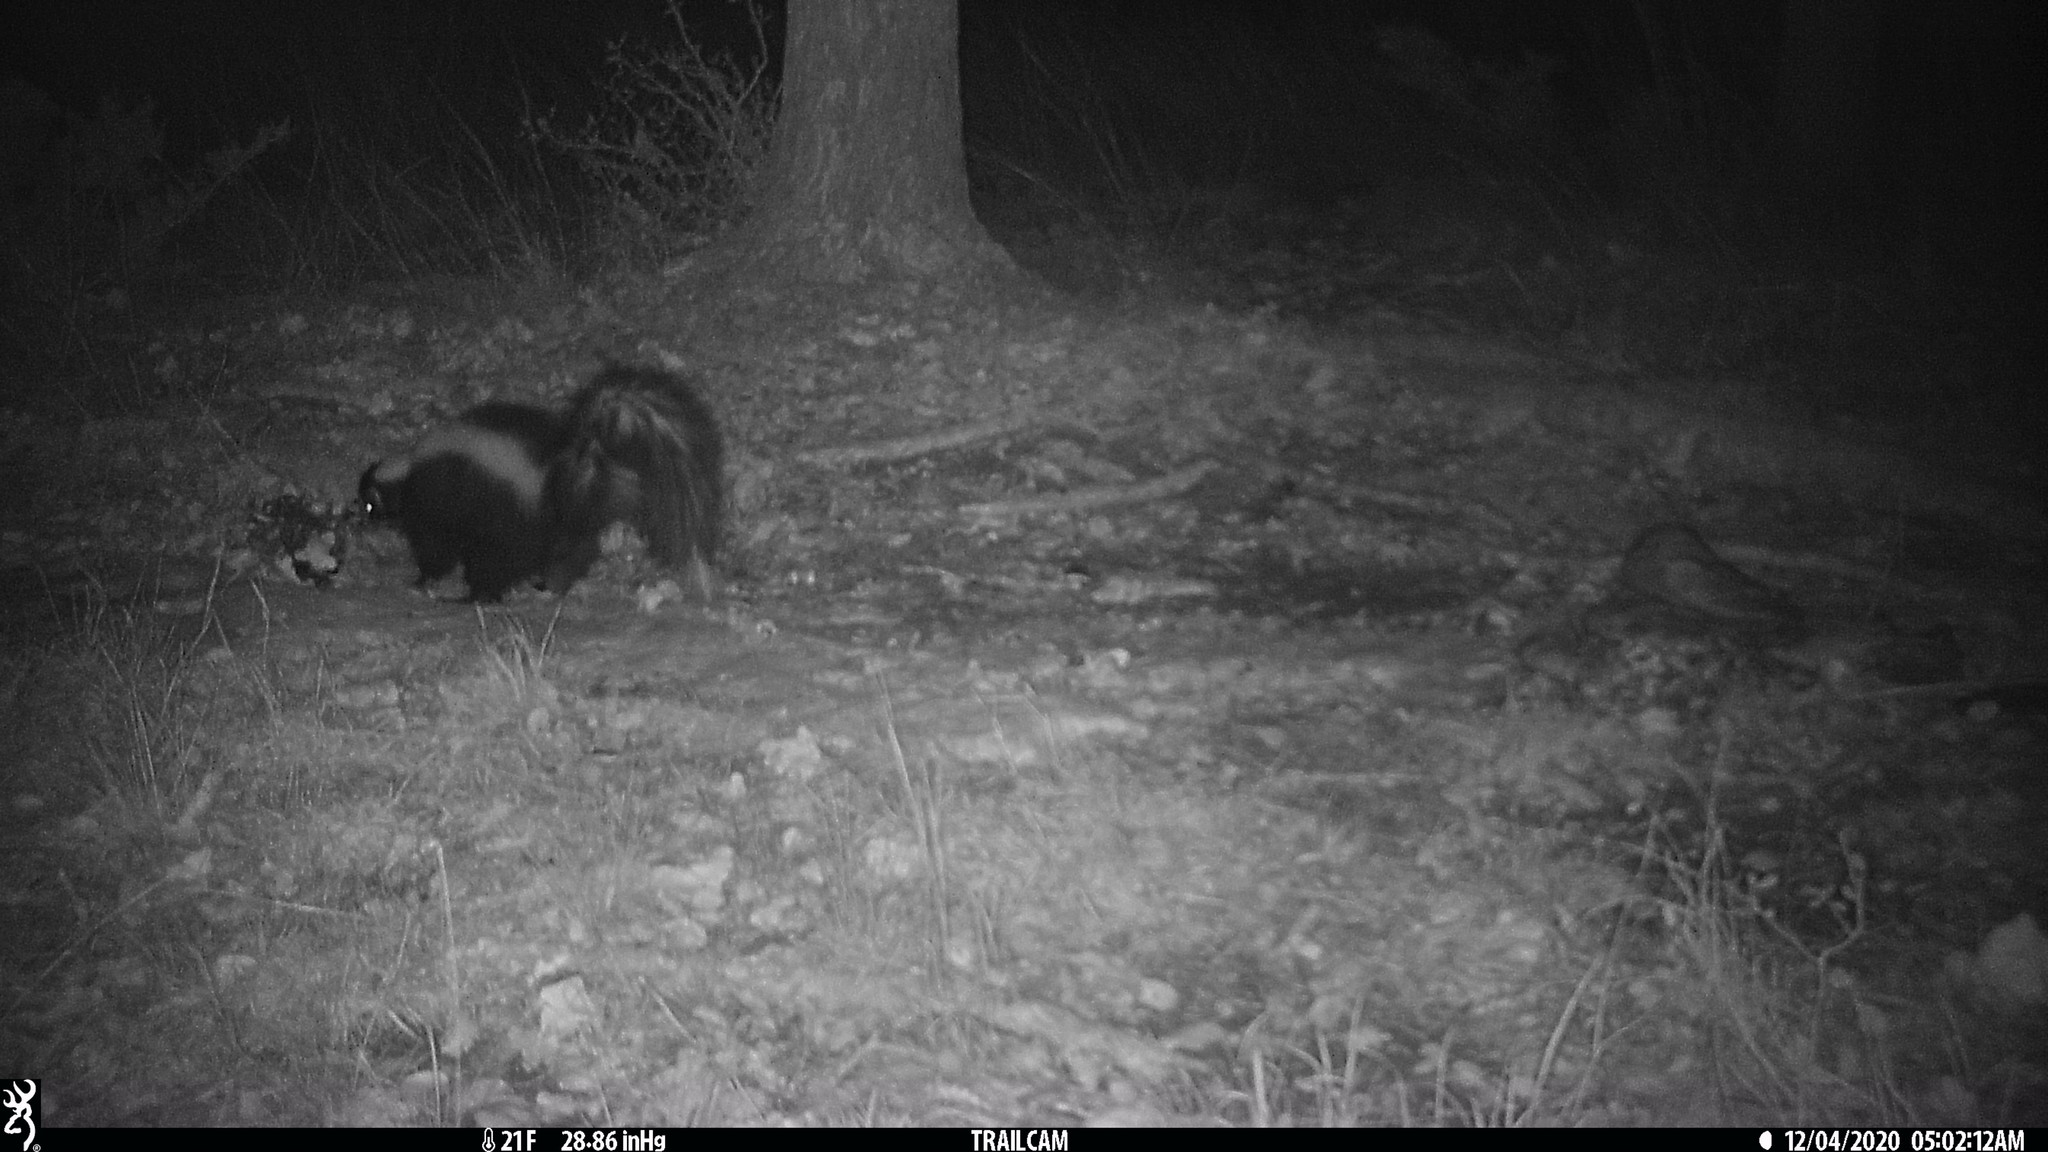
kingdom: Animalia
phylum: Chordata
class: Mammalia
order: Carnivora
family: Mephitidae
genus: Mephitis
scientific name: Mephitis mephitis
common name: Striped skunk
